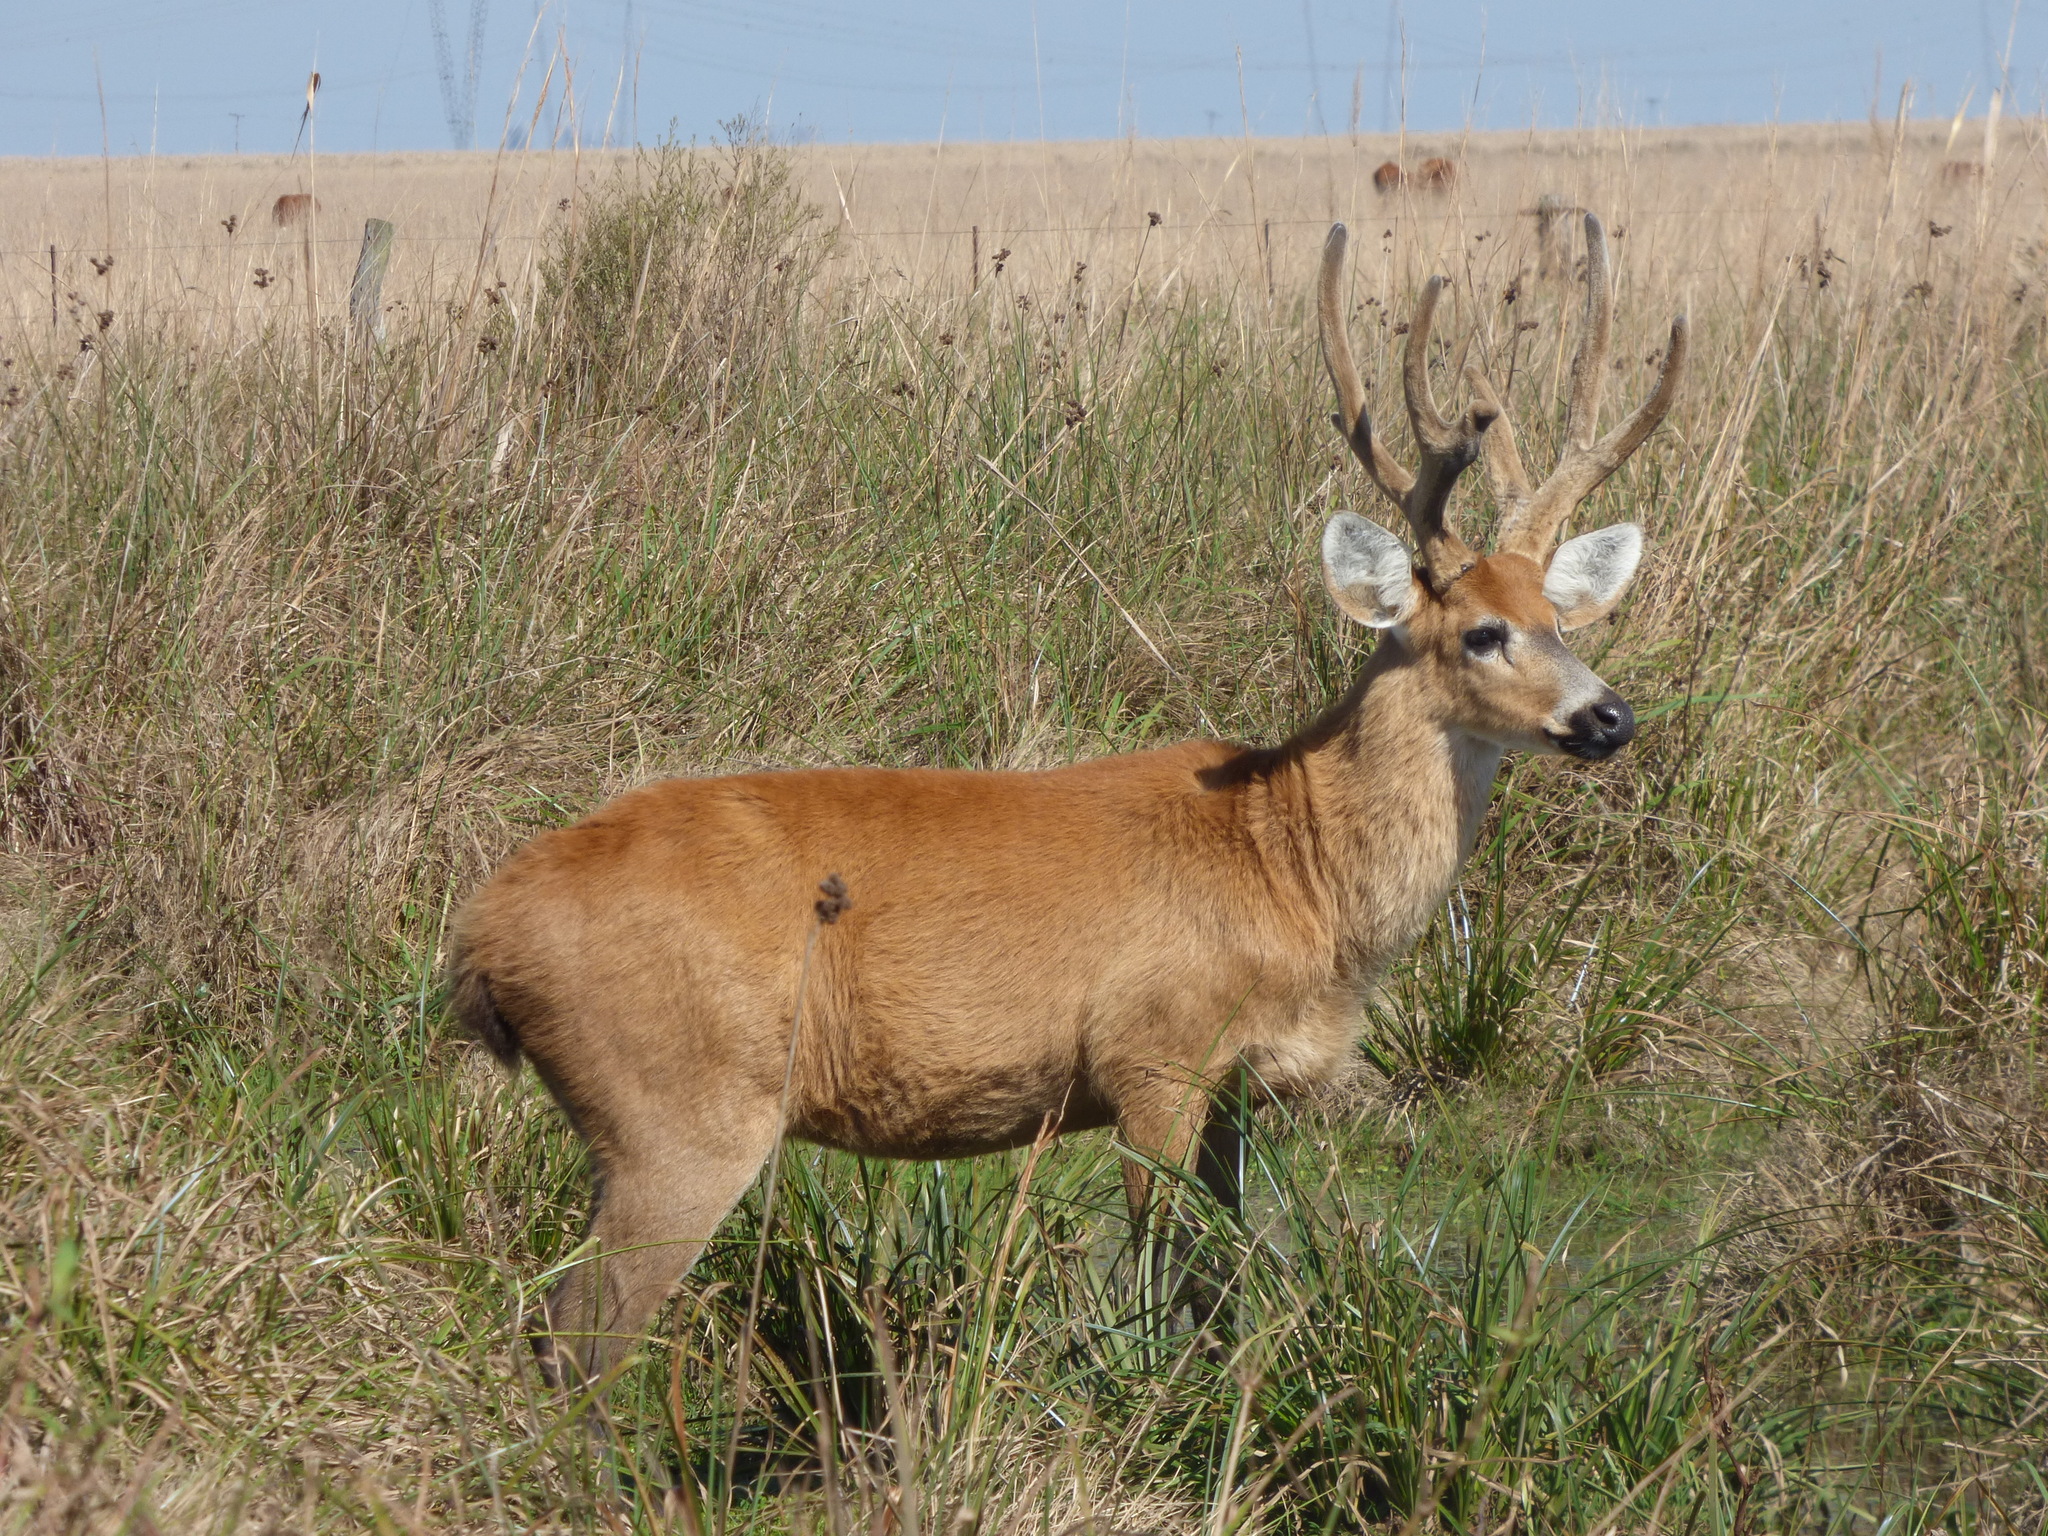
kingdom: Animalia
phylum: Chordata
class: Mammalia
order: Artiodactyla
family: Cervidae
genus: Blastocerus
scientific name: Blastocerus dichotomus
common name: Marsh deer
